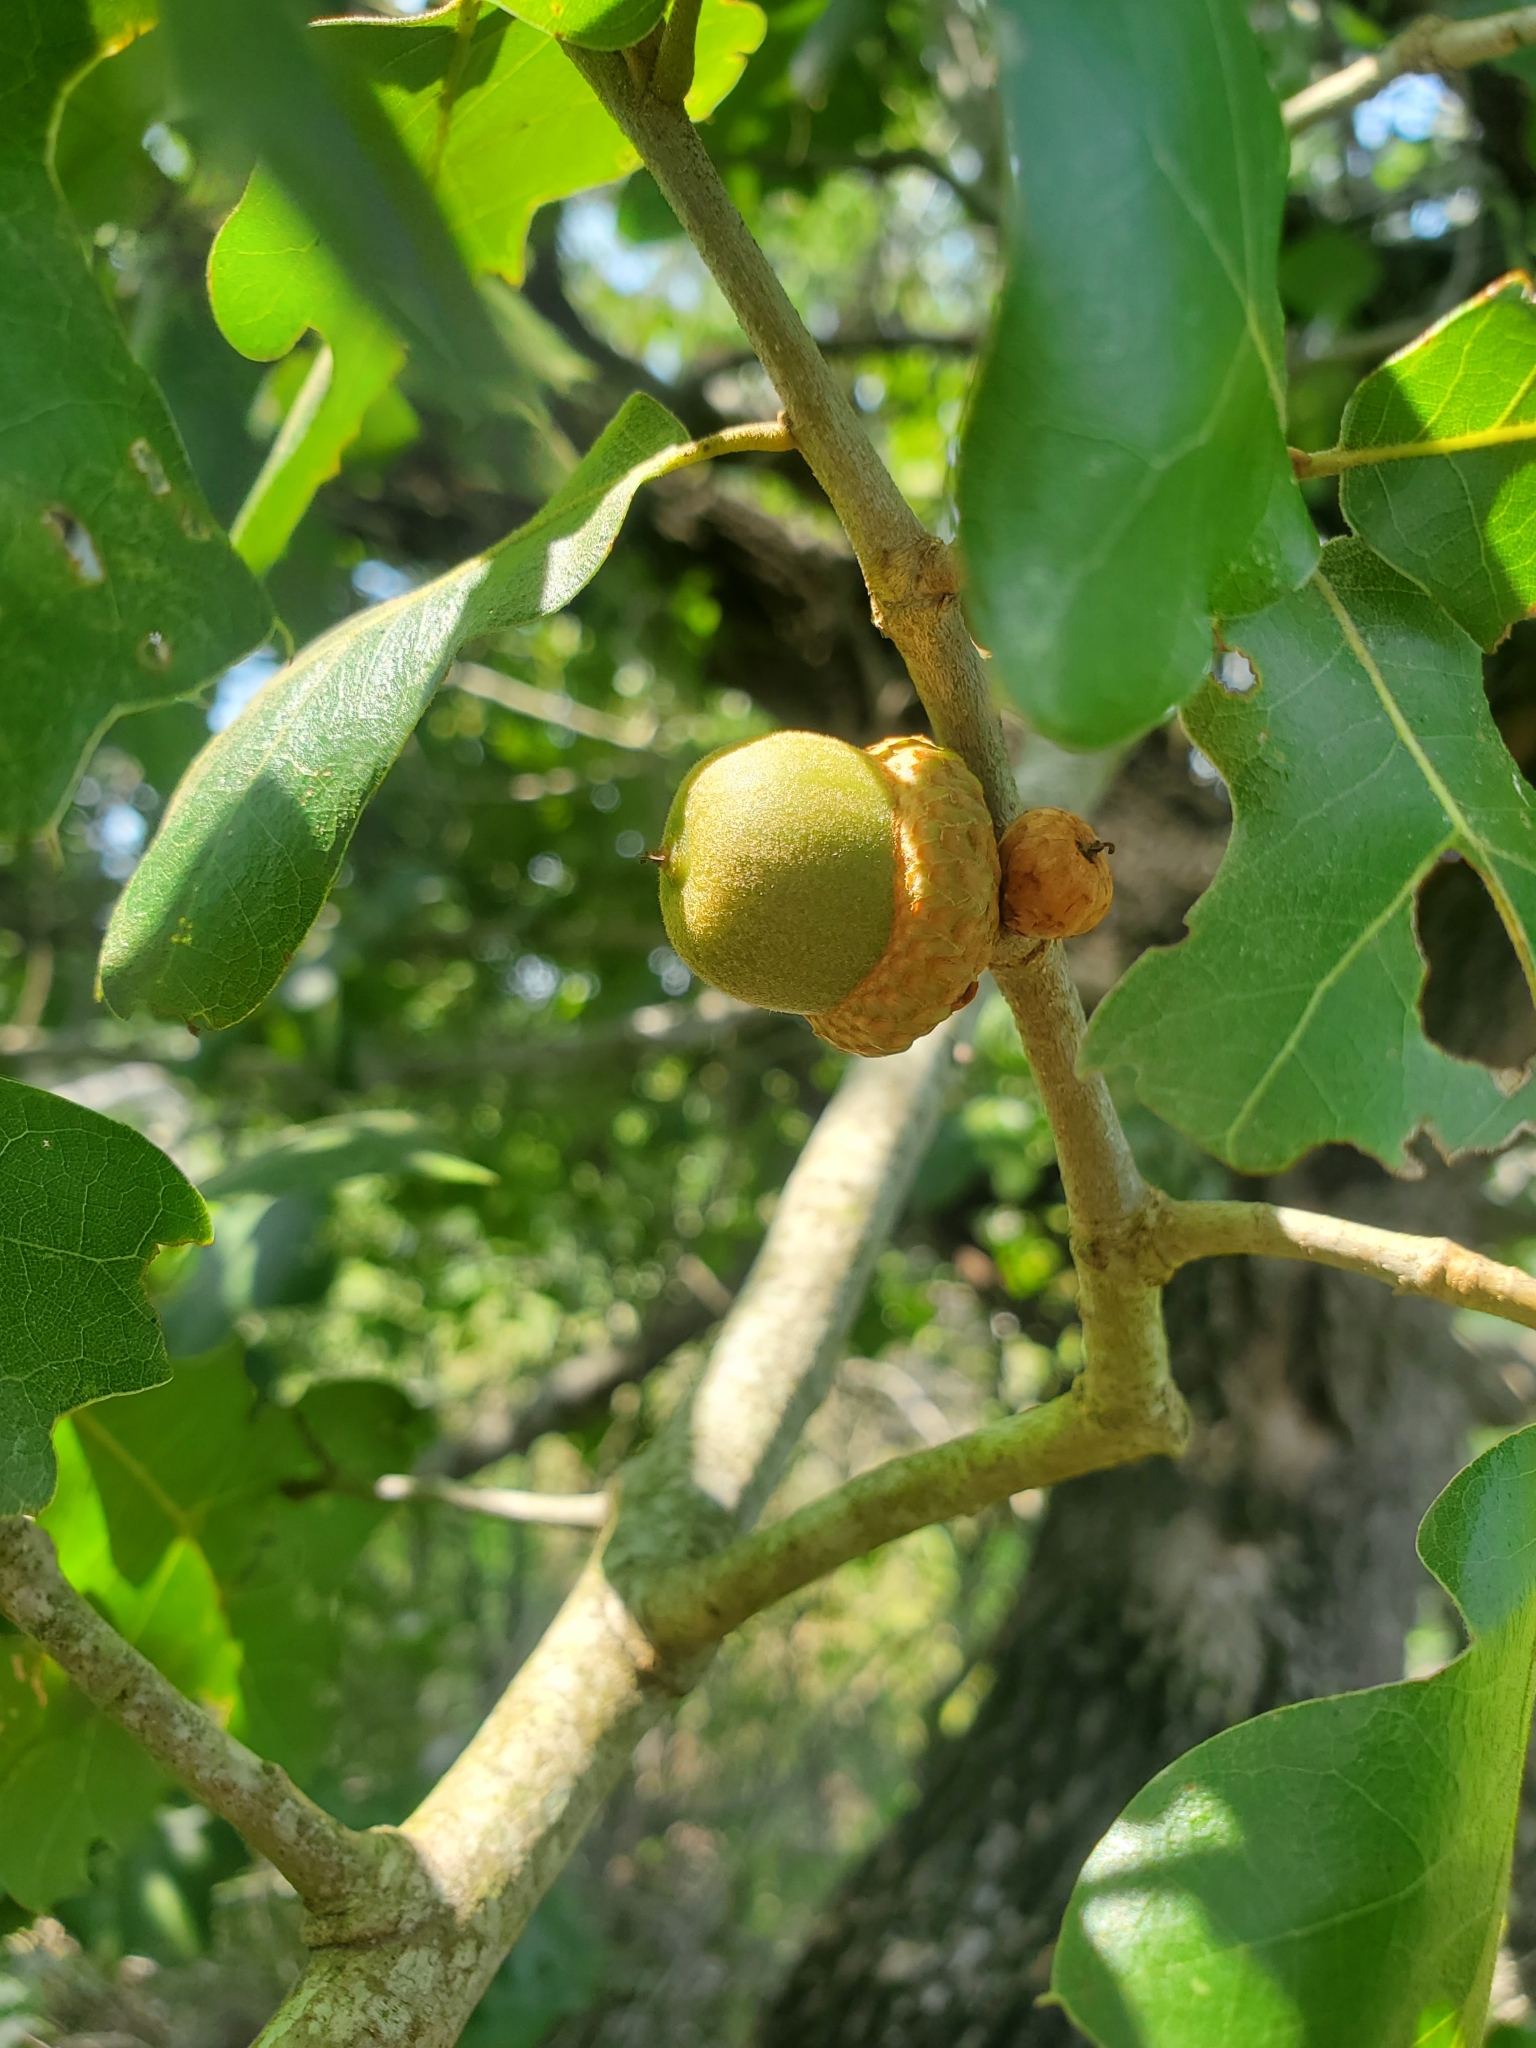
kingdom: Plantae
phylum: Tracheophyta
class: Magnoliopsida
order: Fagales
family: Fagaceae
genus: Quercus
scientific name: Quercus marilandica
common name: Blackjack oak
